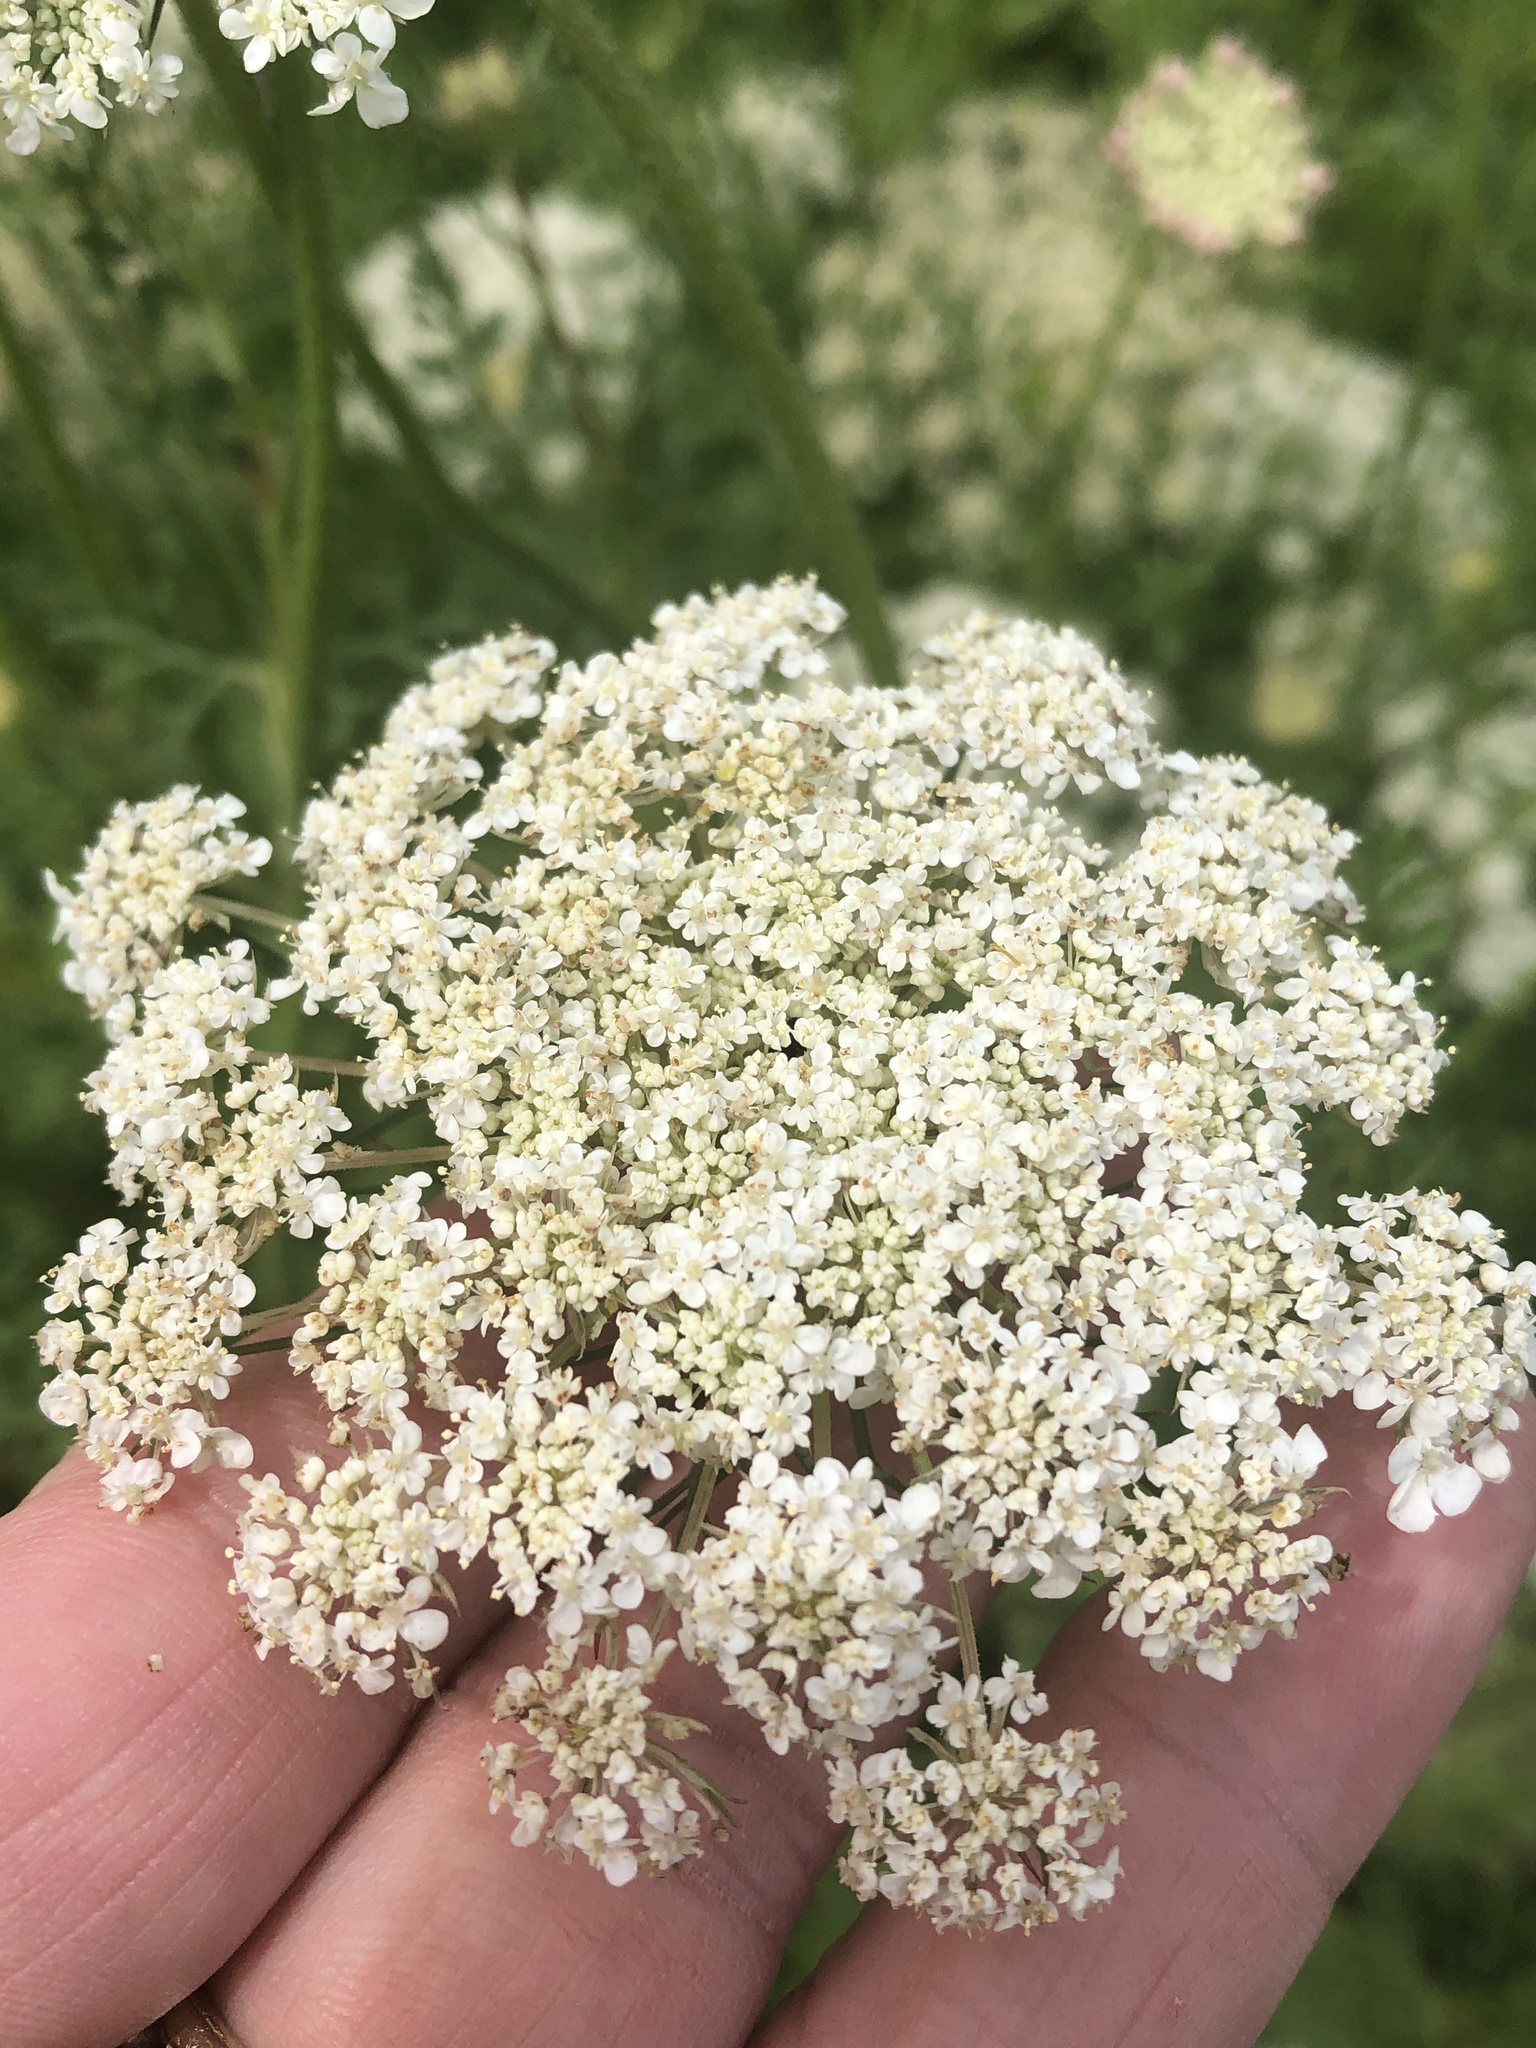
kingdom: Plantae
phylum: Tracheophyta
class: Magnoliopsida
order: Apiales
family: Apiaceae
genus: Daucus
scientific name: Daucus carota
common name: Wild carrot
